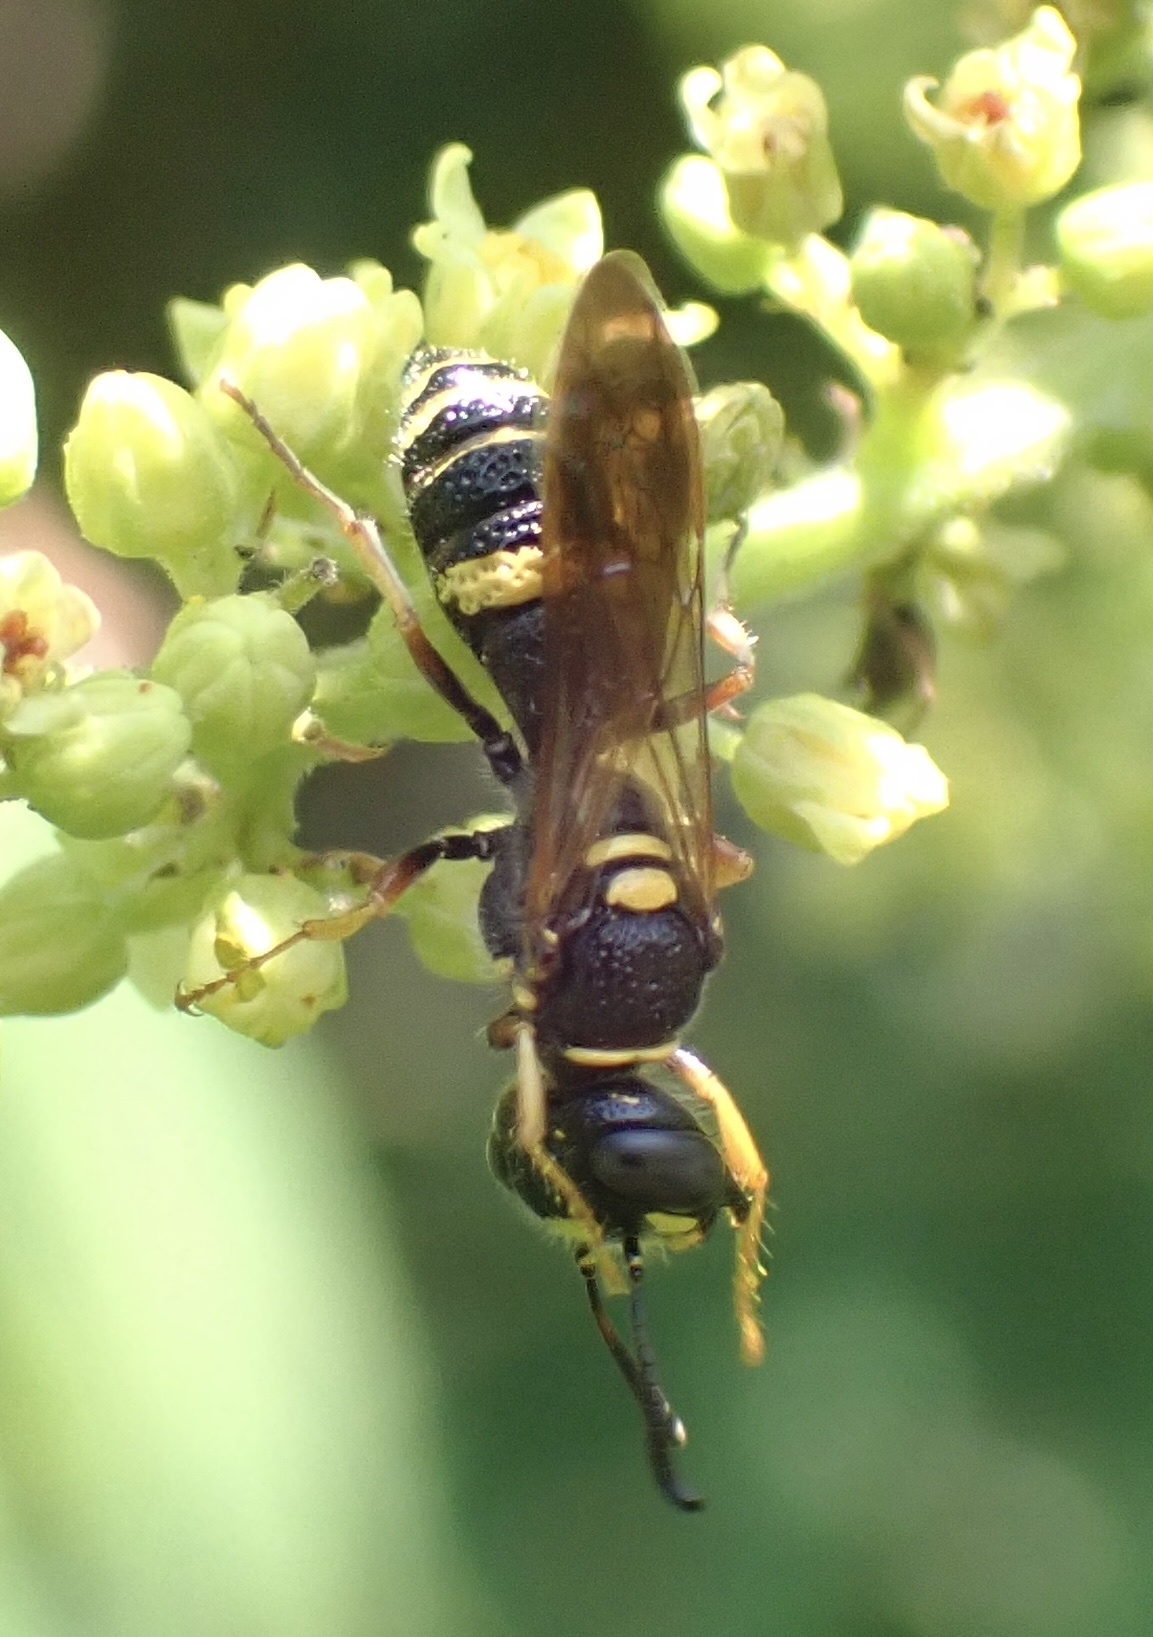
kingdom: Animalia
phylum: Arthropoda
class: Insecta
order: Hymenoptera
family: Crabronidae
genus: Philanthus
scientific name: Philanthus gibbosus
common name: Humped beewolf
